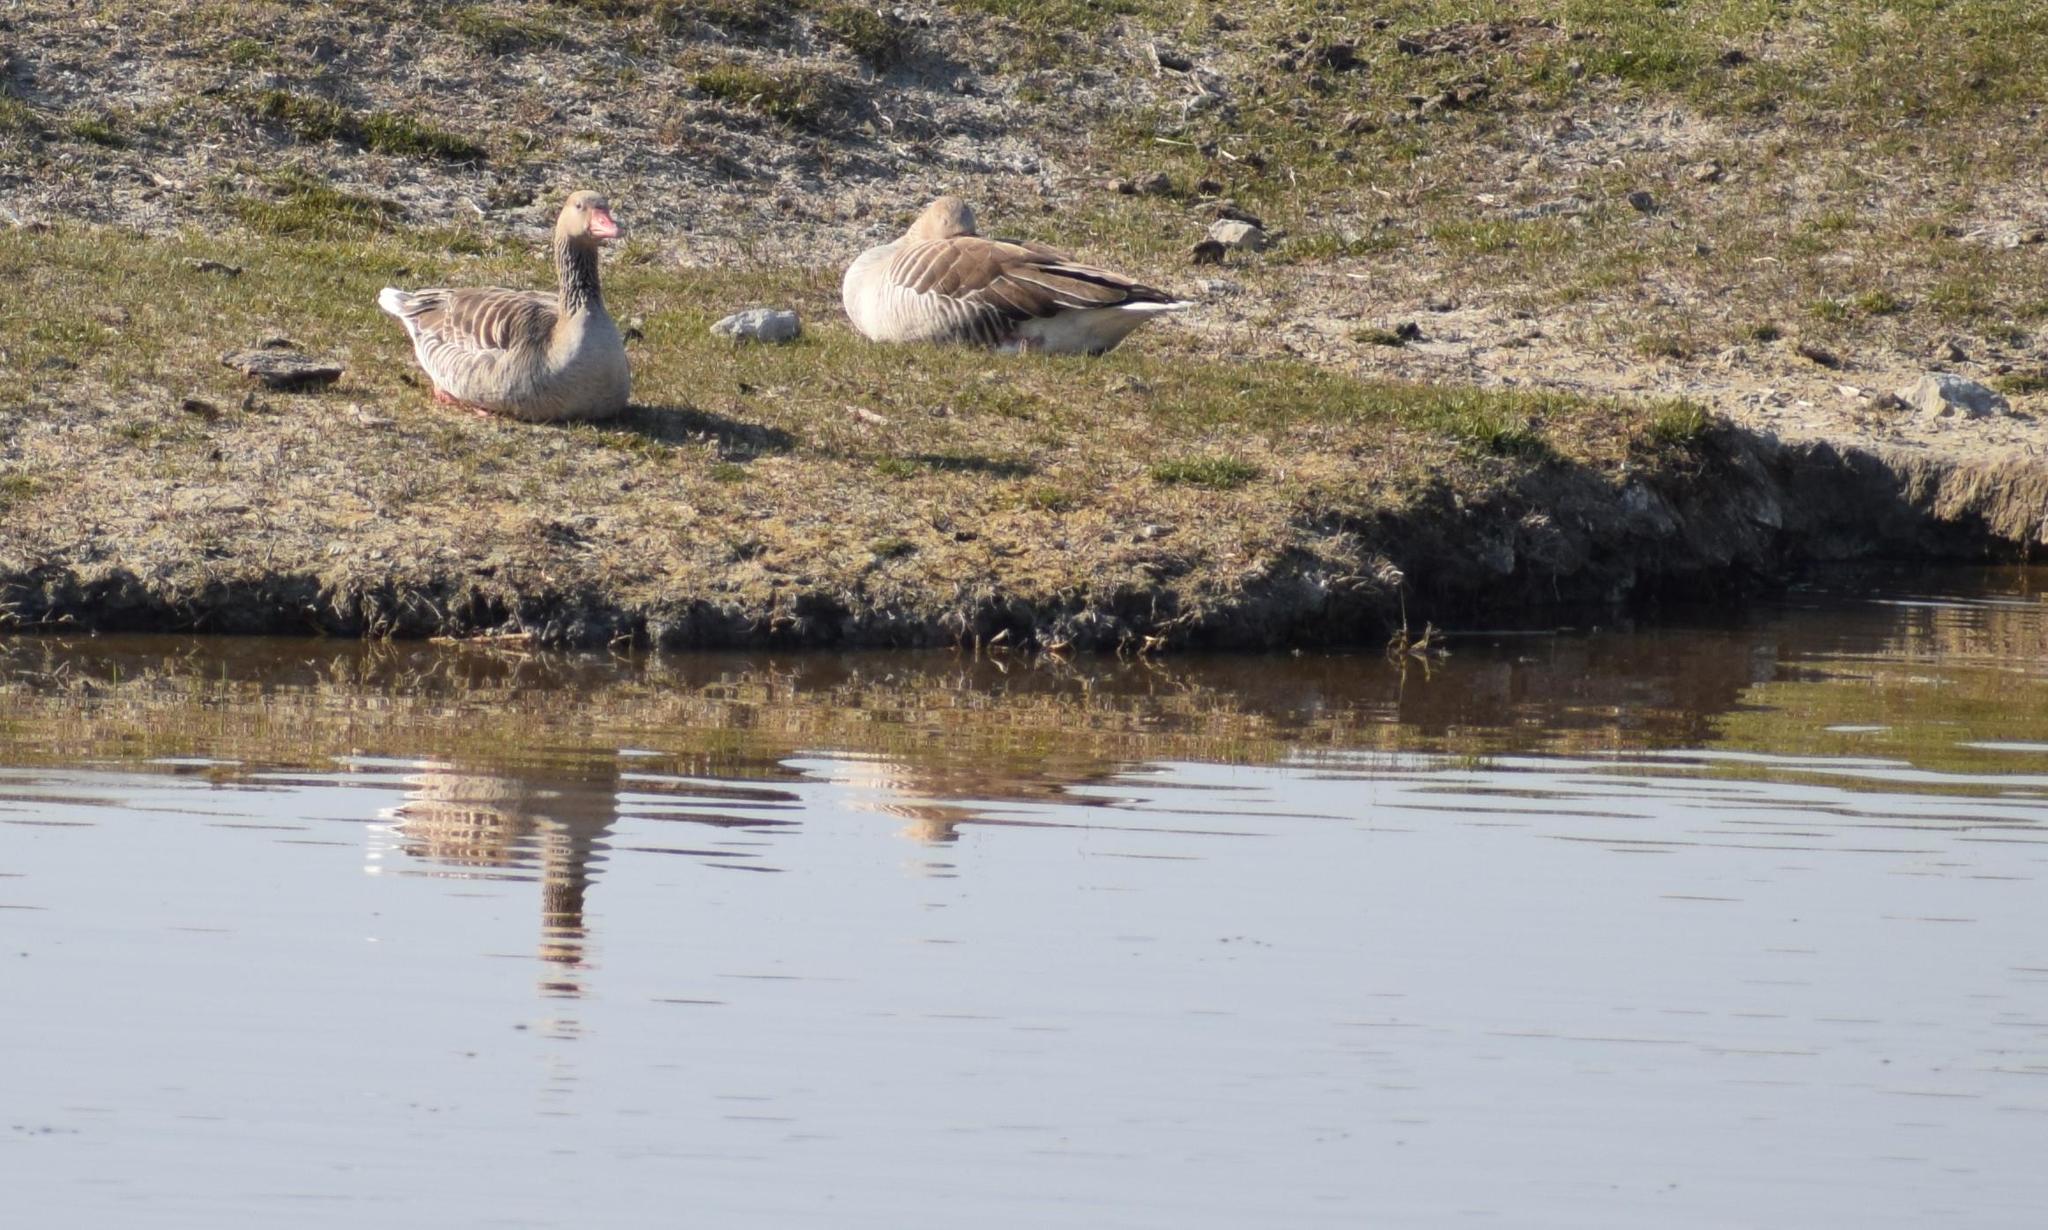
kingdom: Animalia
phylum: Chordata
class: Aves
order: Anseriformes
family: Anatidae
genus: Anser
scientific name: Anser anser
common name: Greylag goose
